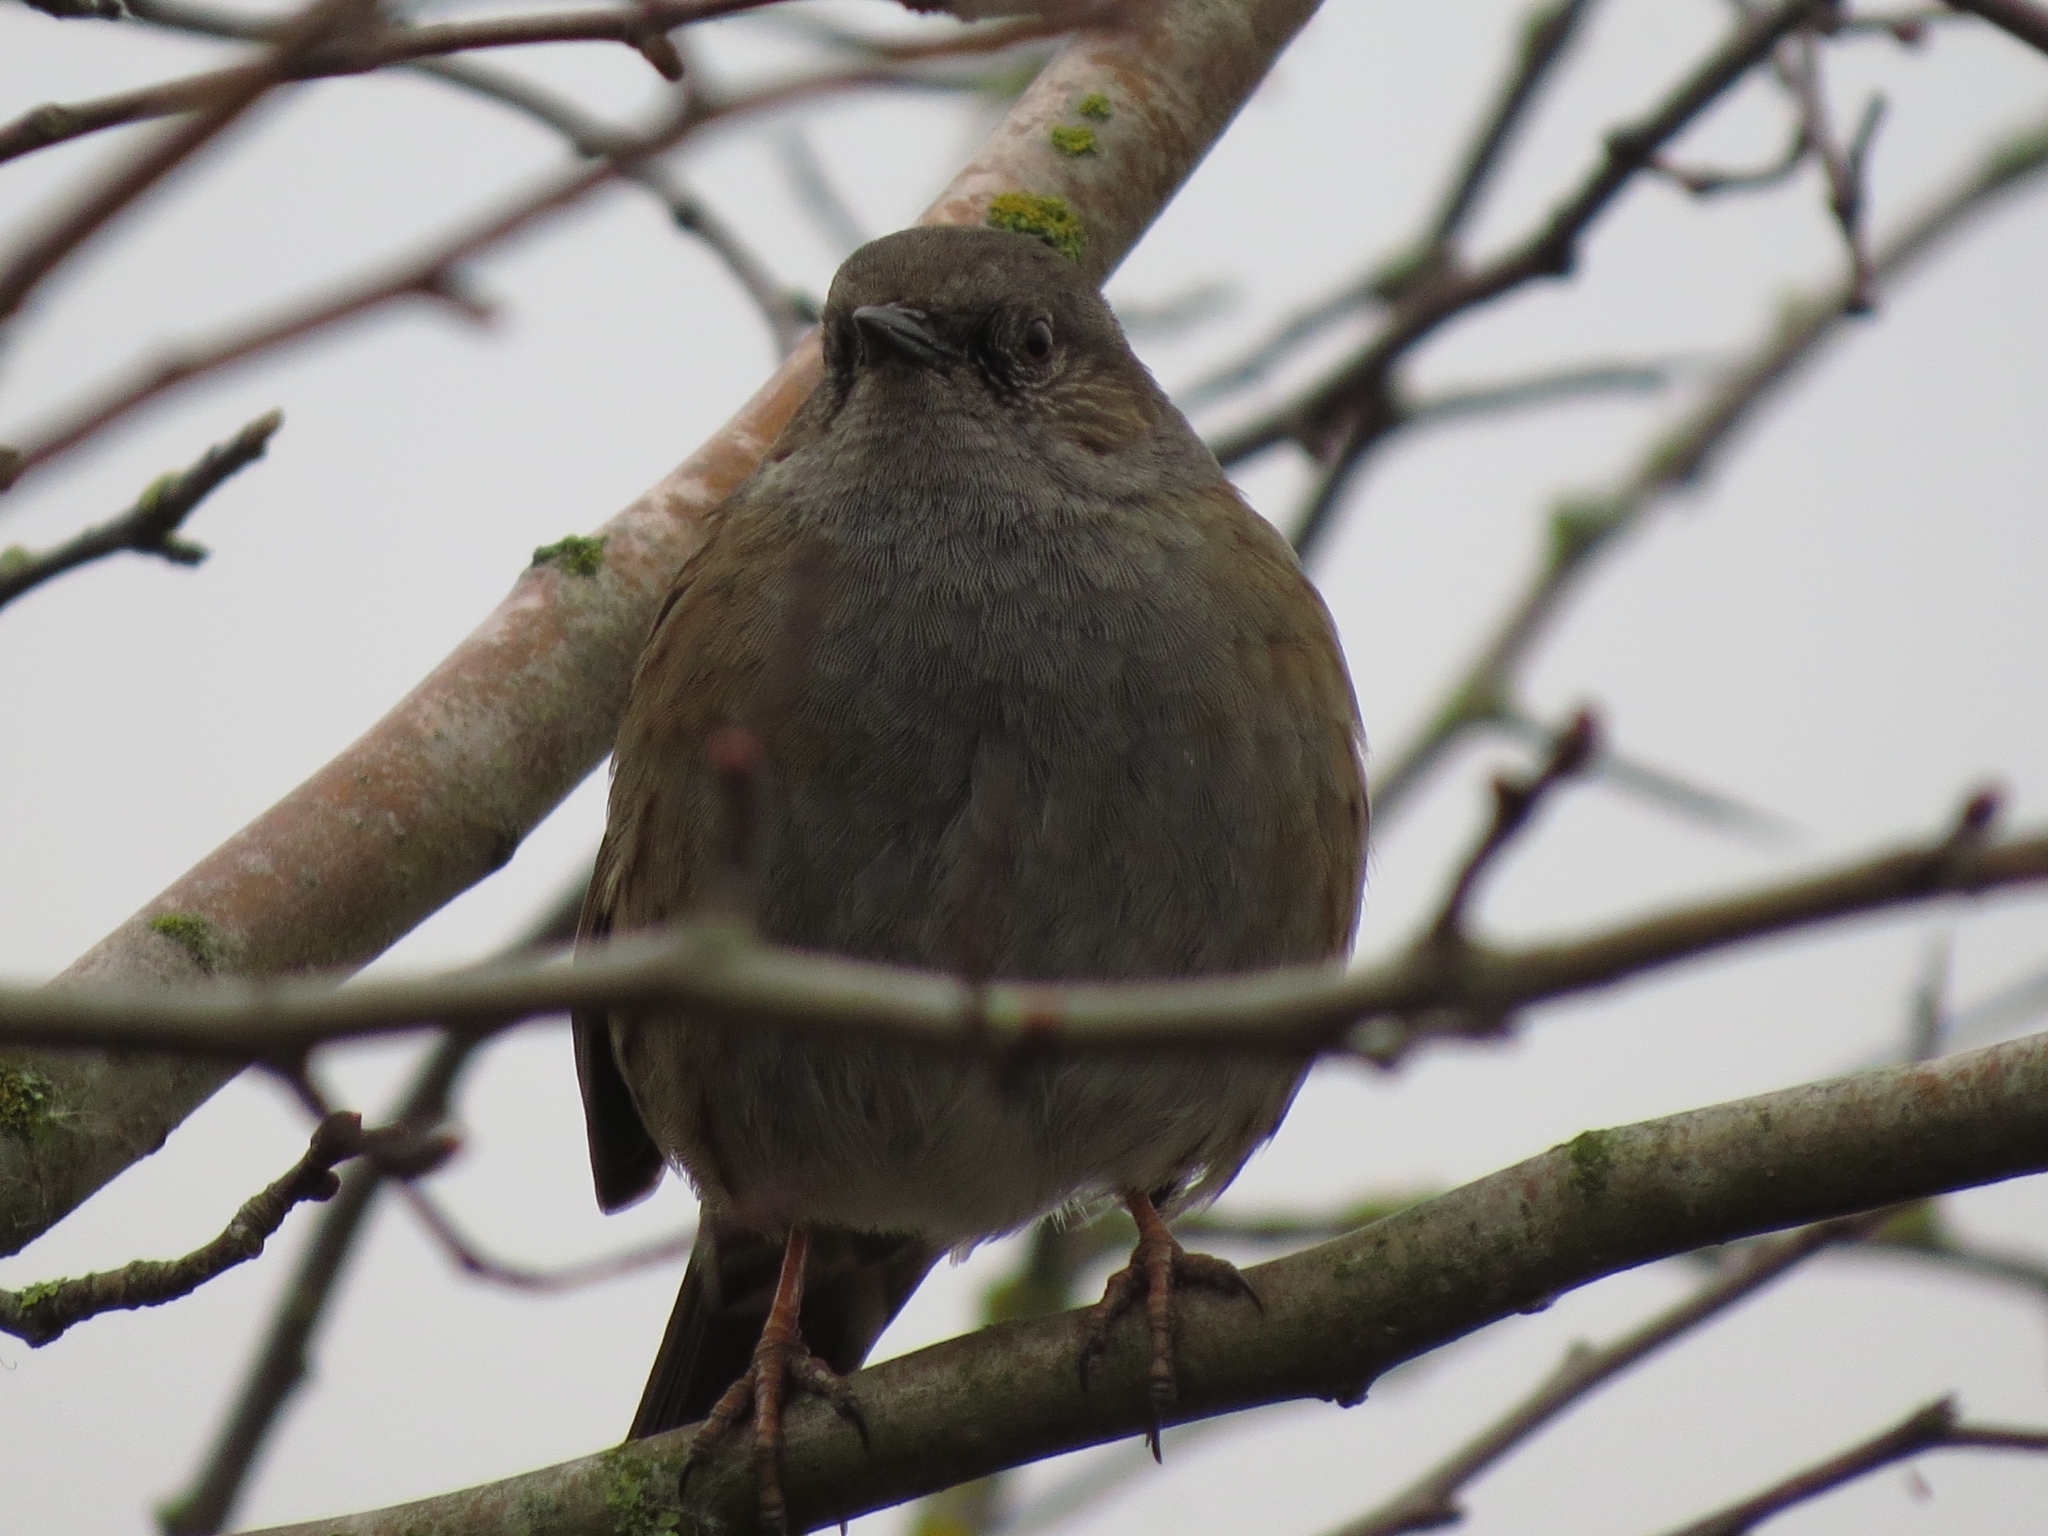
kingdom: Animalia
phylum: Chordata
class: Aves
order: Passeriformes
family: Prunellidae
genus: Prunella
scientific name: Prunella modularis
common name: Dunnock
